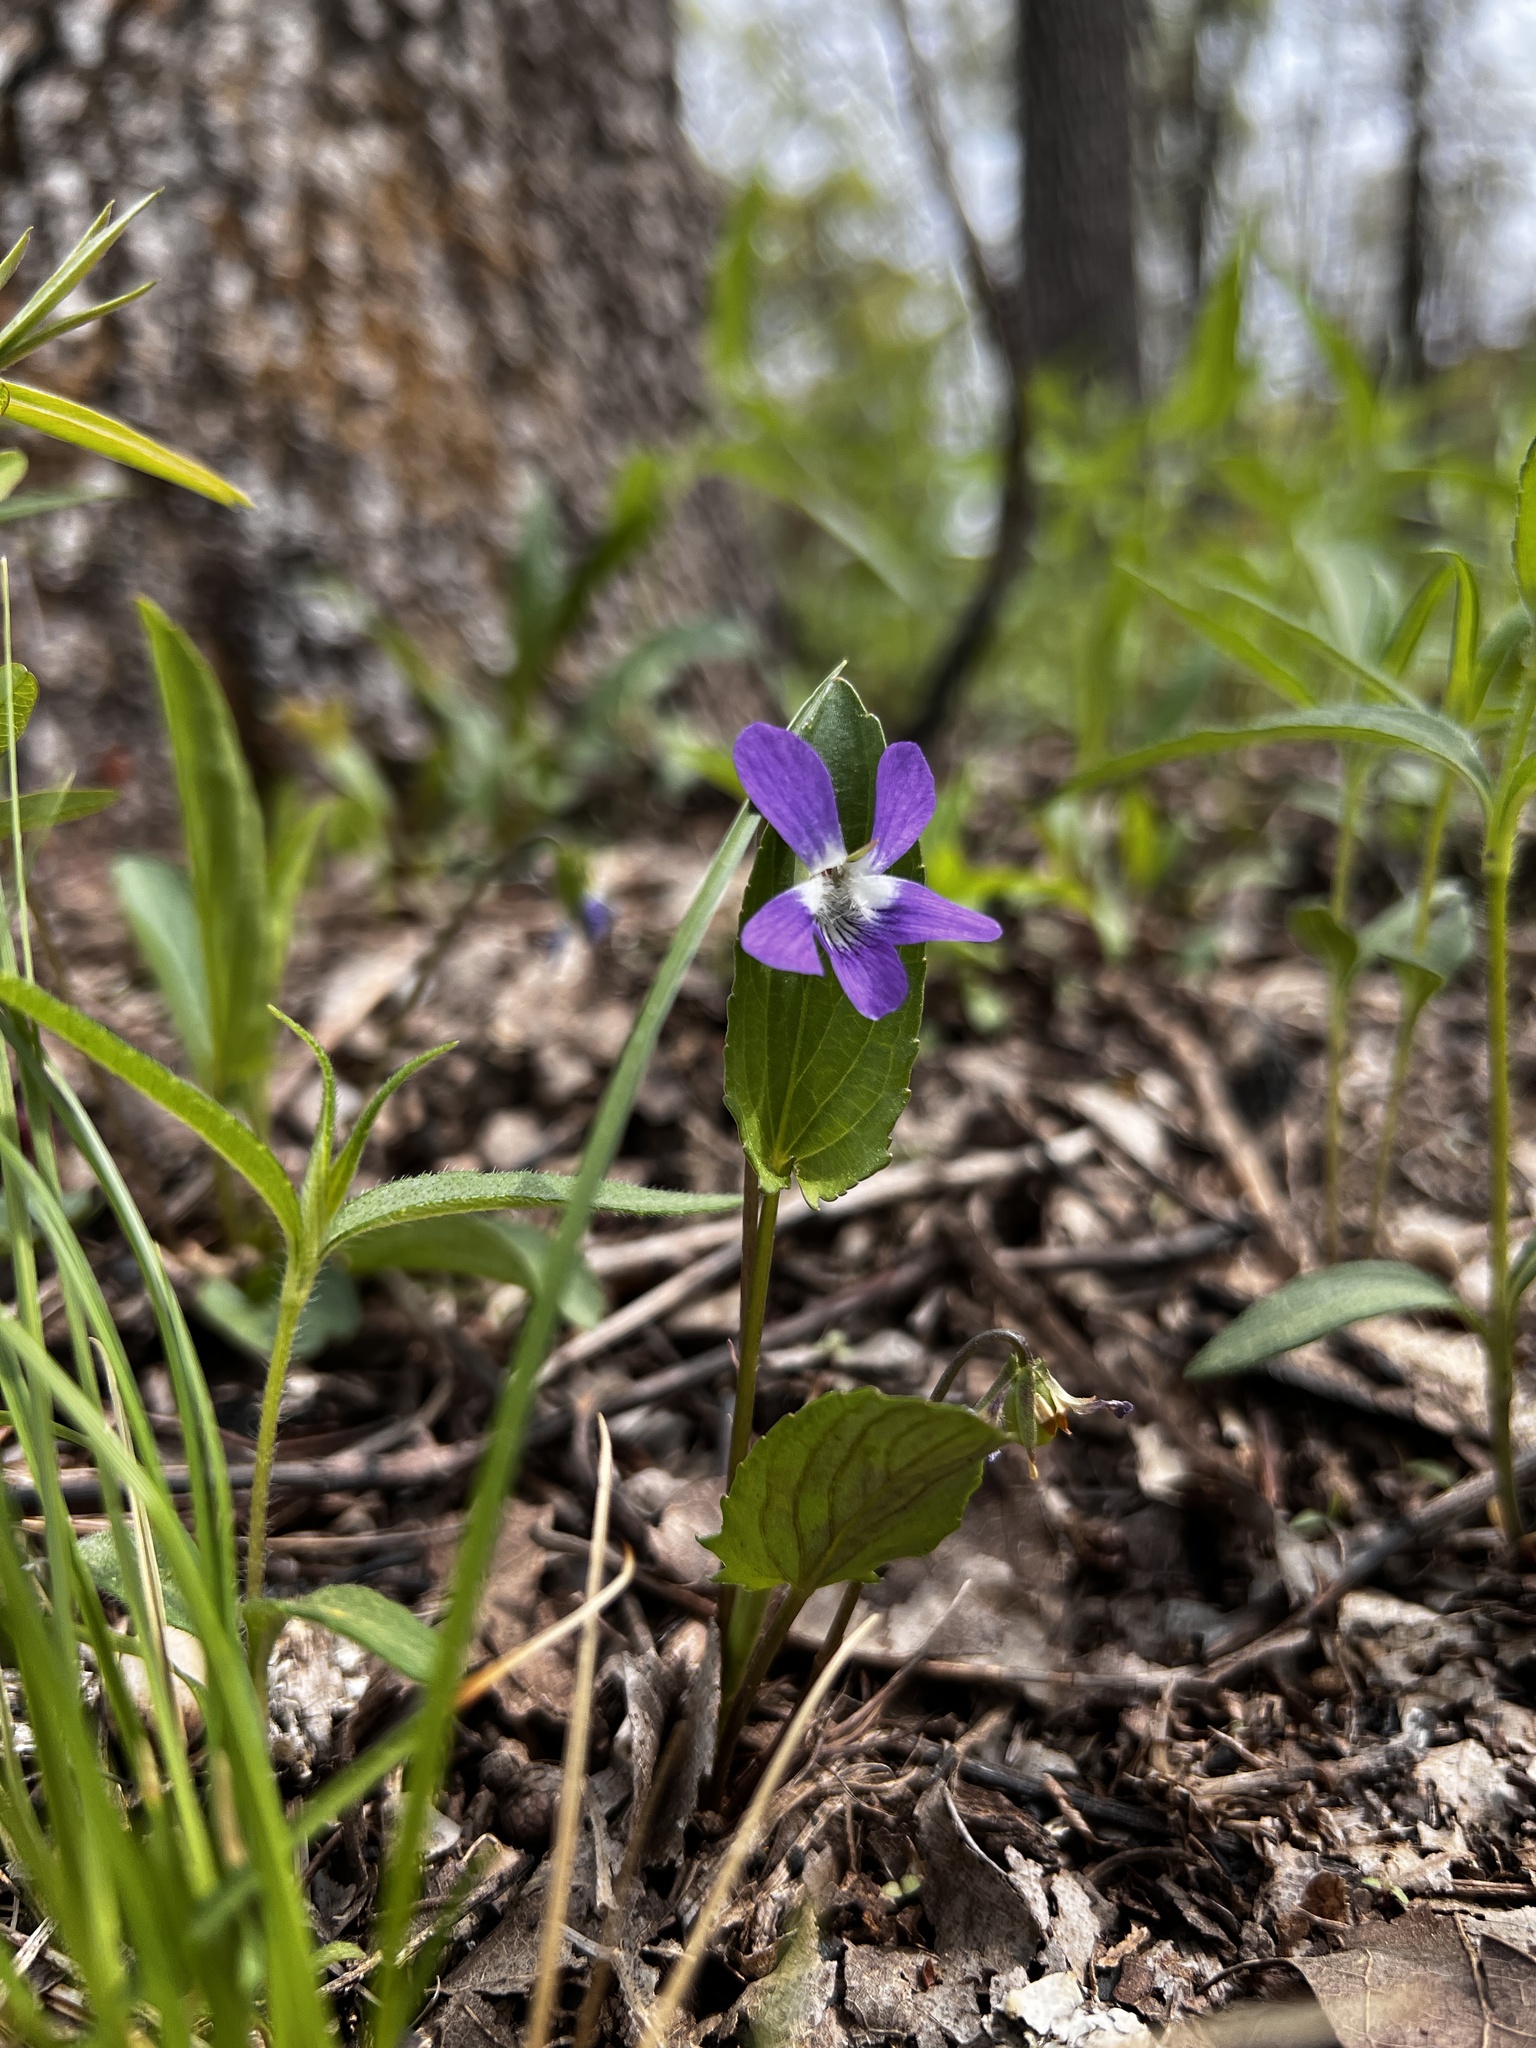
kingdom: Plantae
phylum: Tracheophyta
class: Magnoliopsida
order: Malpighiales
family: Violaceae
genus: Viola
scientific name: Viola sagittata
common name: Arrowhead violet
